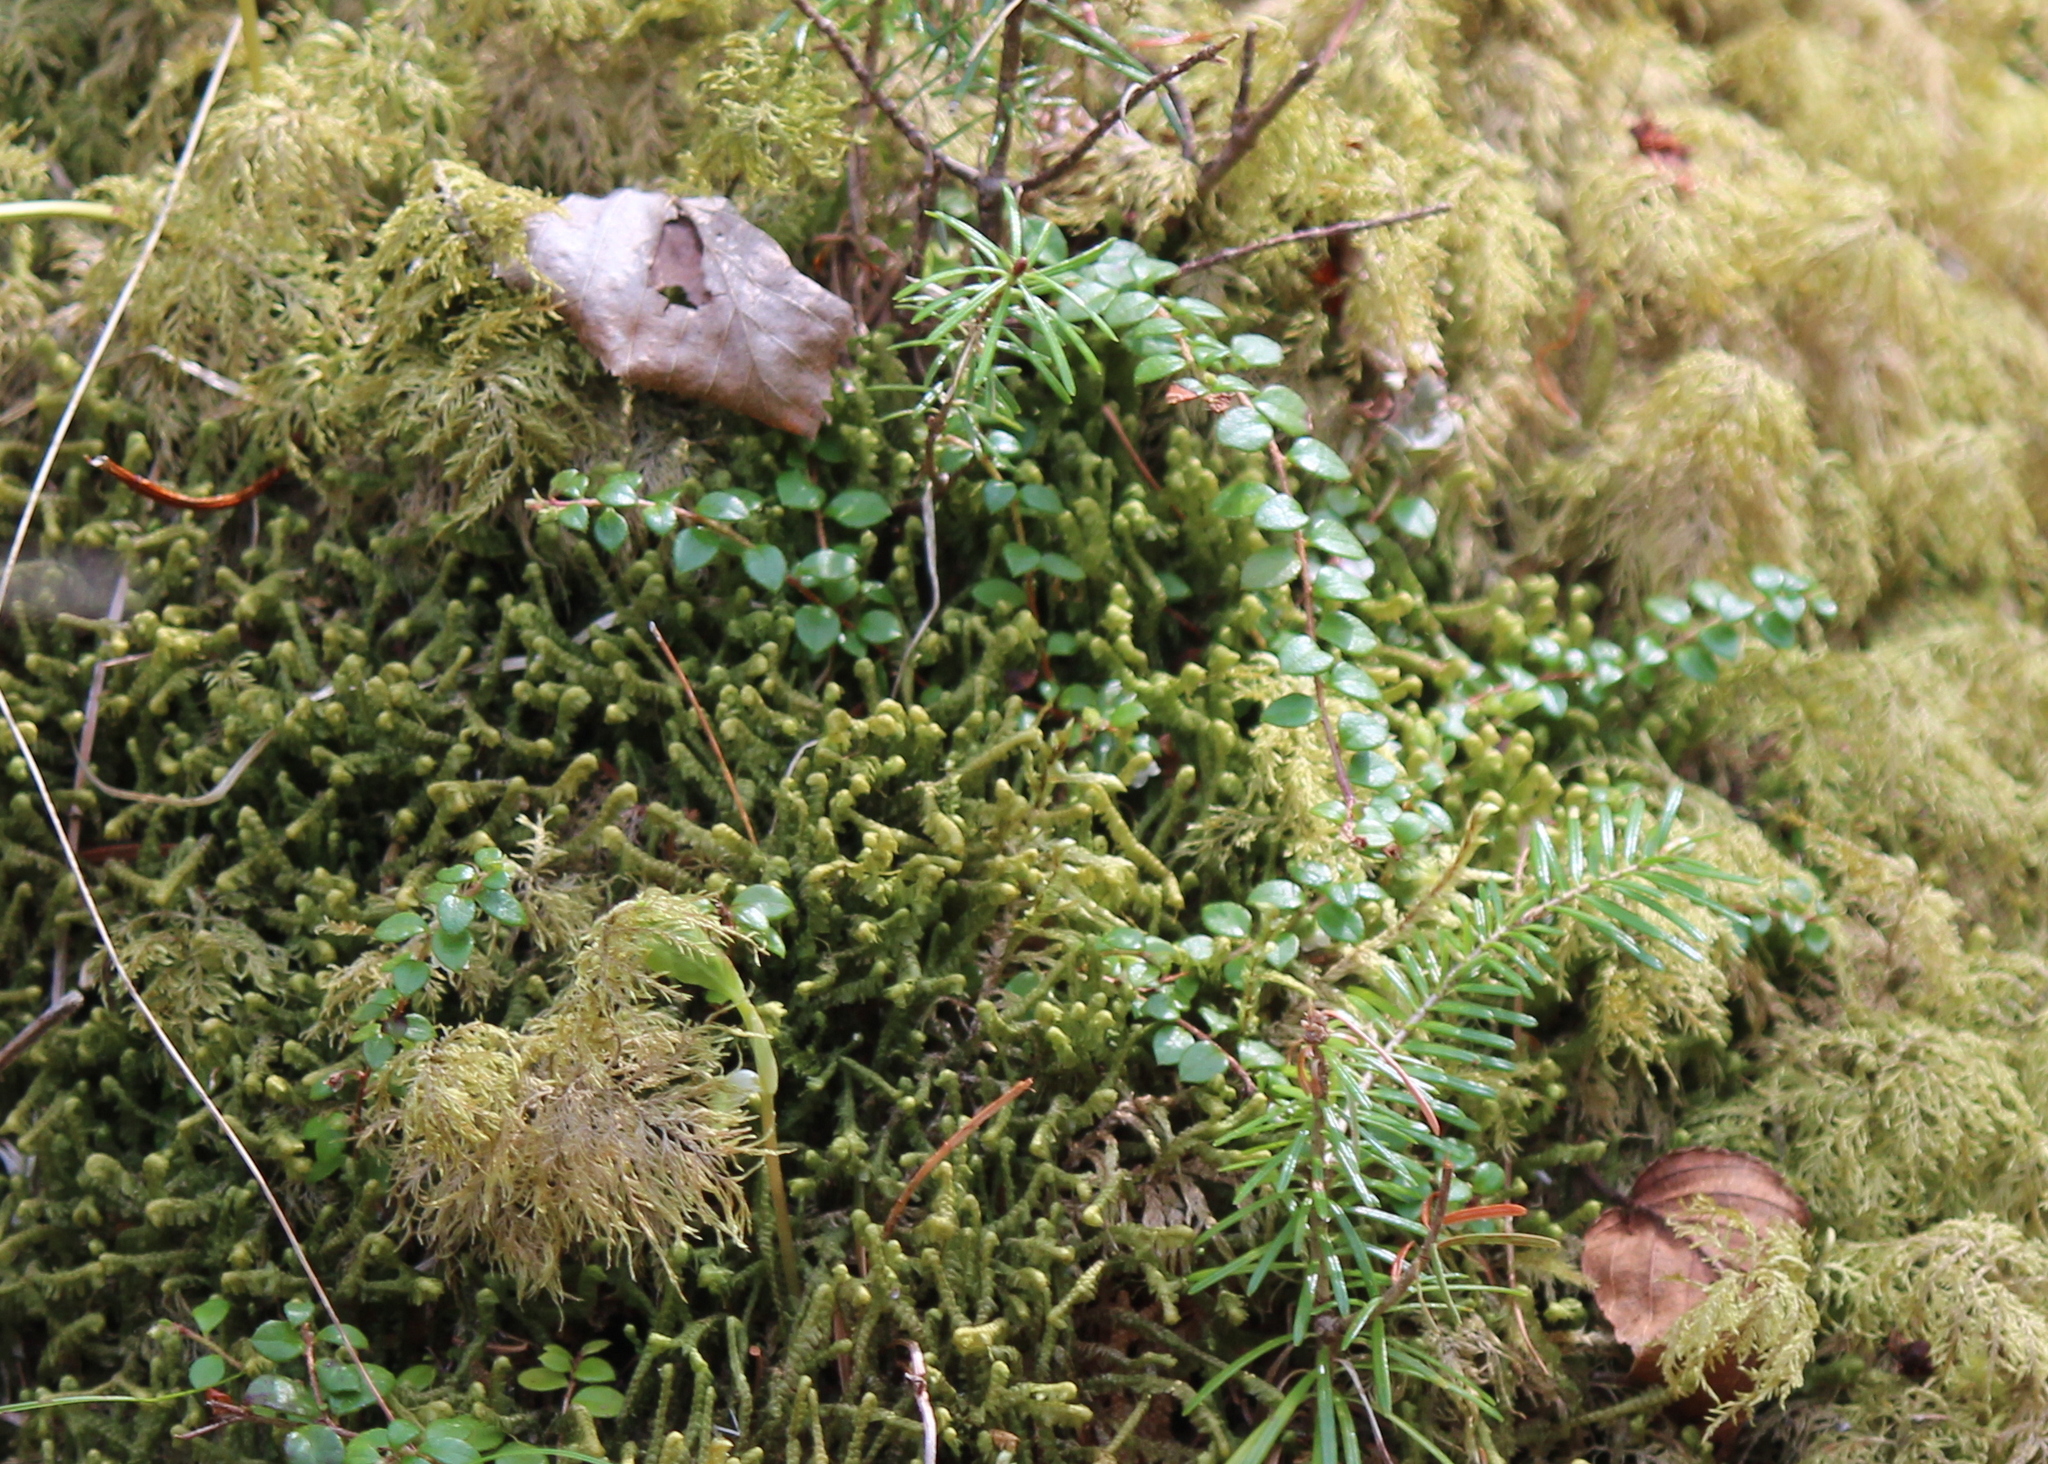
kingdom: Plantae
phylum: Tracheophyta
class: Magnoliopsida
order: Ericales
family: Ericaceae
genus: Gaultheria
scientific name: Gaultheria hispidula
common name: Cancer wintergreen
